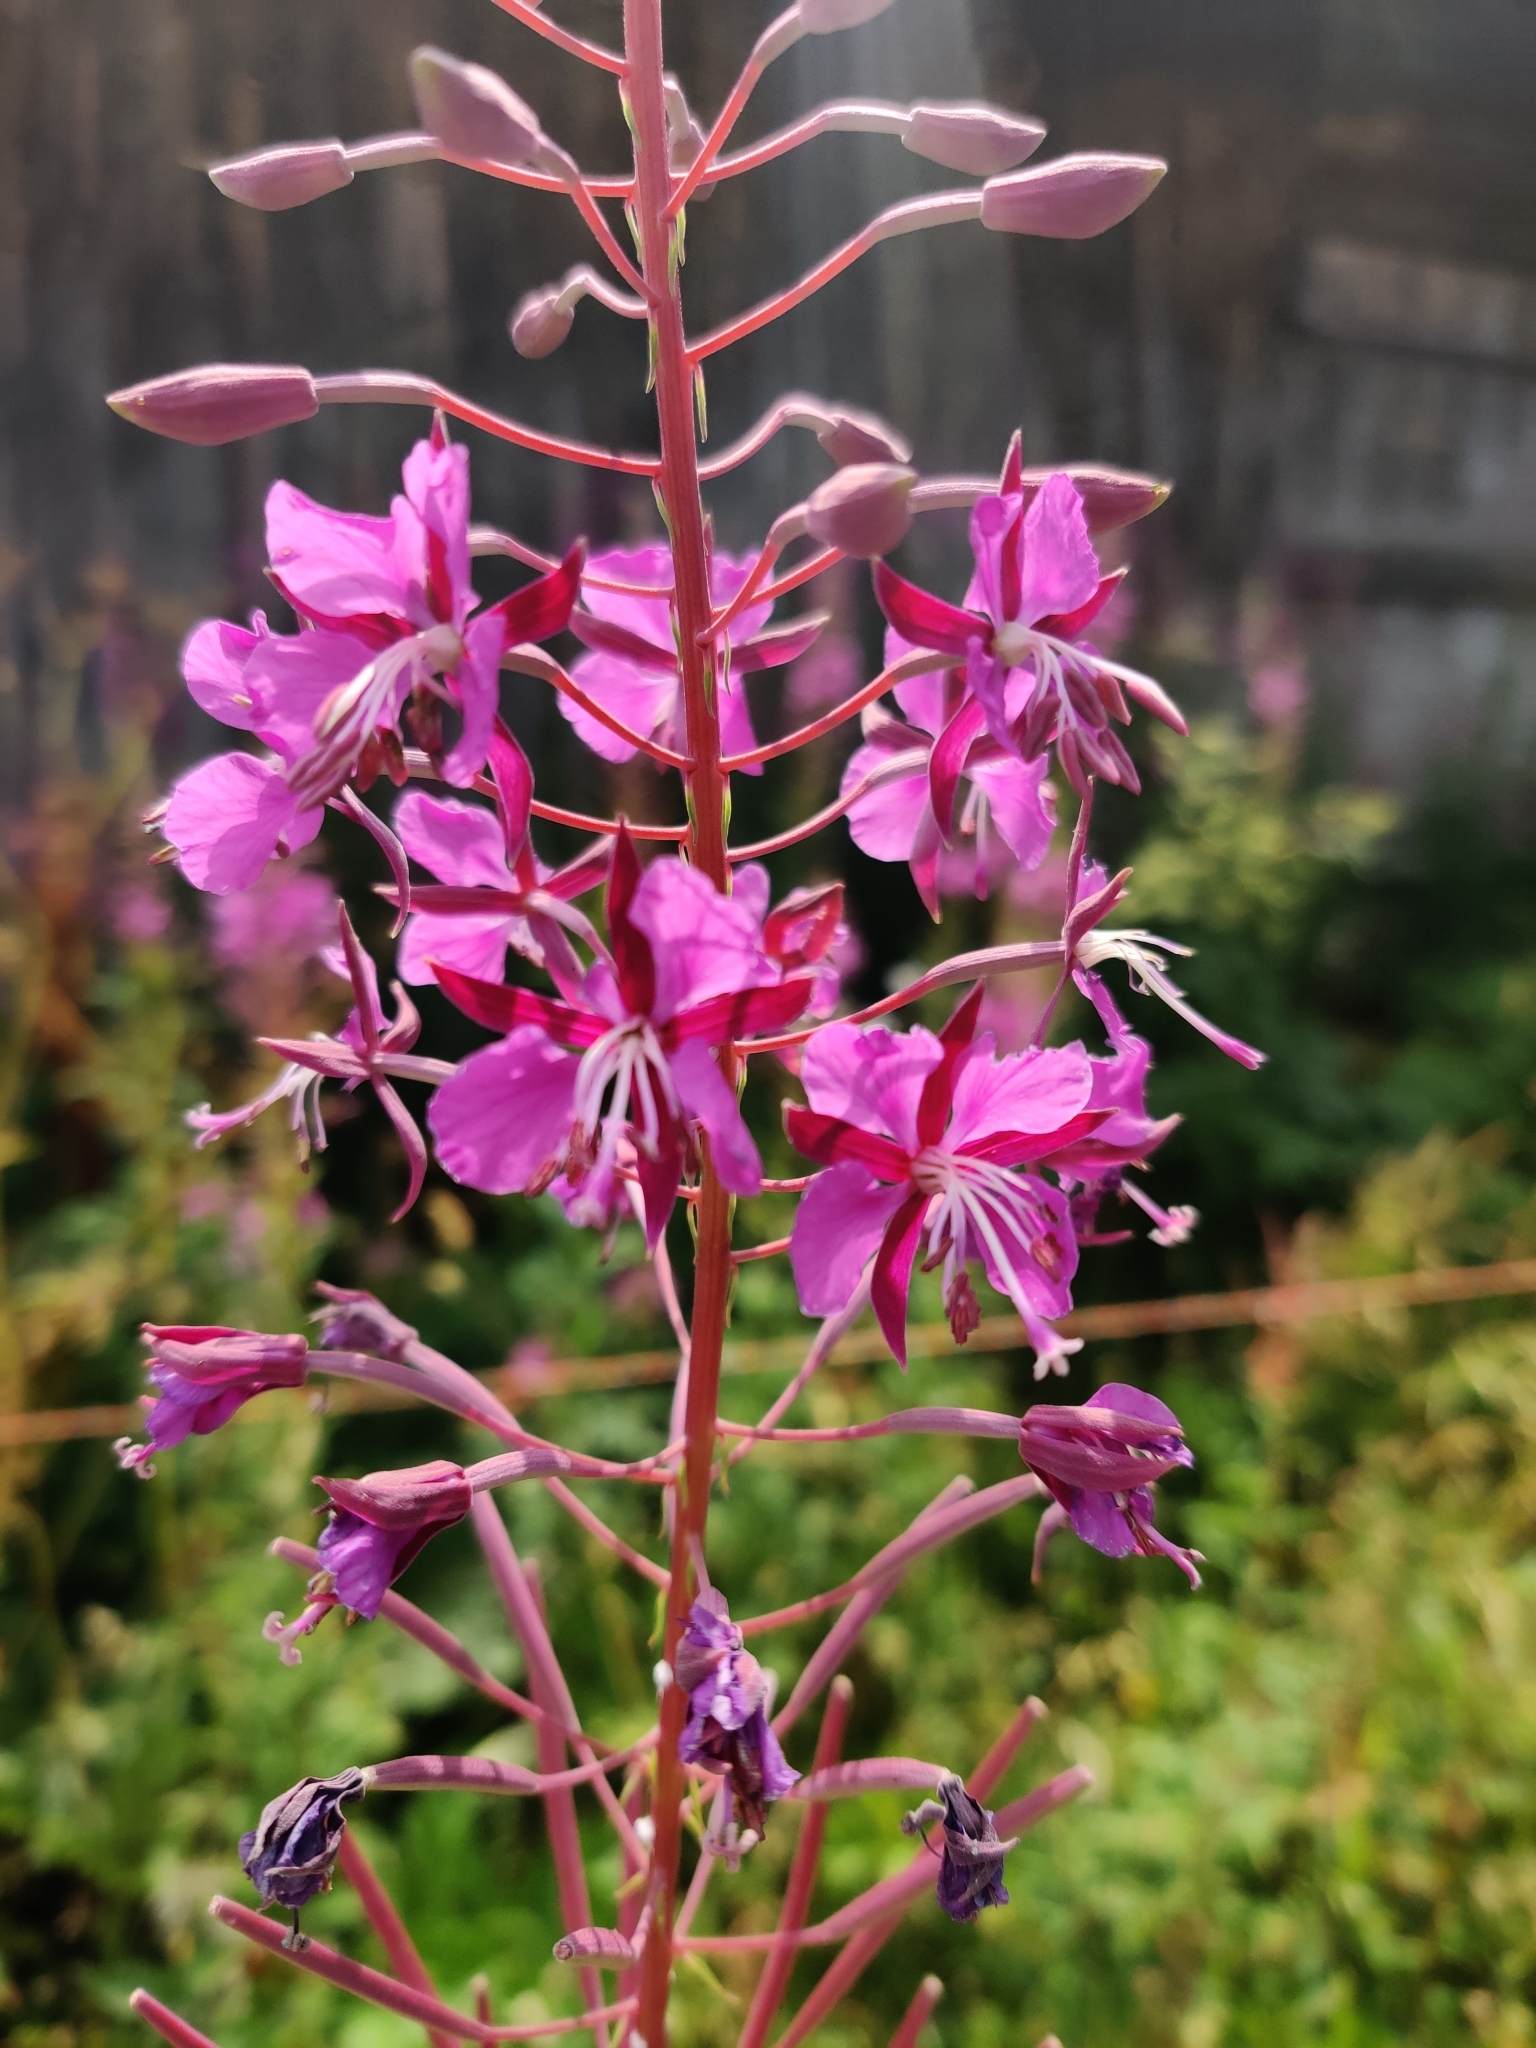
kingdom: Plantae
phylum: Tracheophyta
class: Magnoliopsida
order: Myrtales
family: Onagraceae
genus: Chamaenerion
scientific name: Chamaenerion angustifolium
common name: Fireweed
